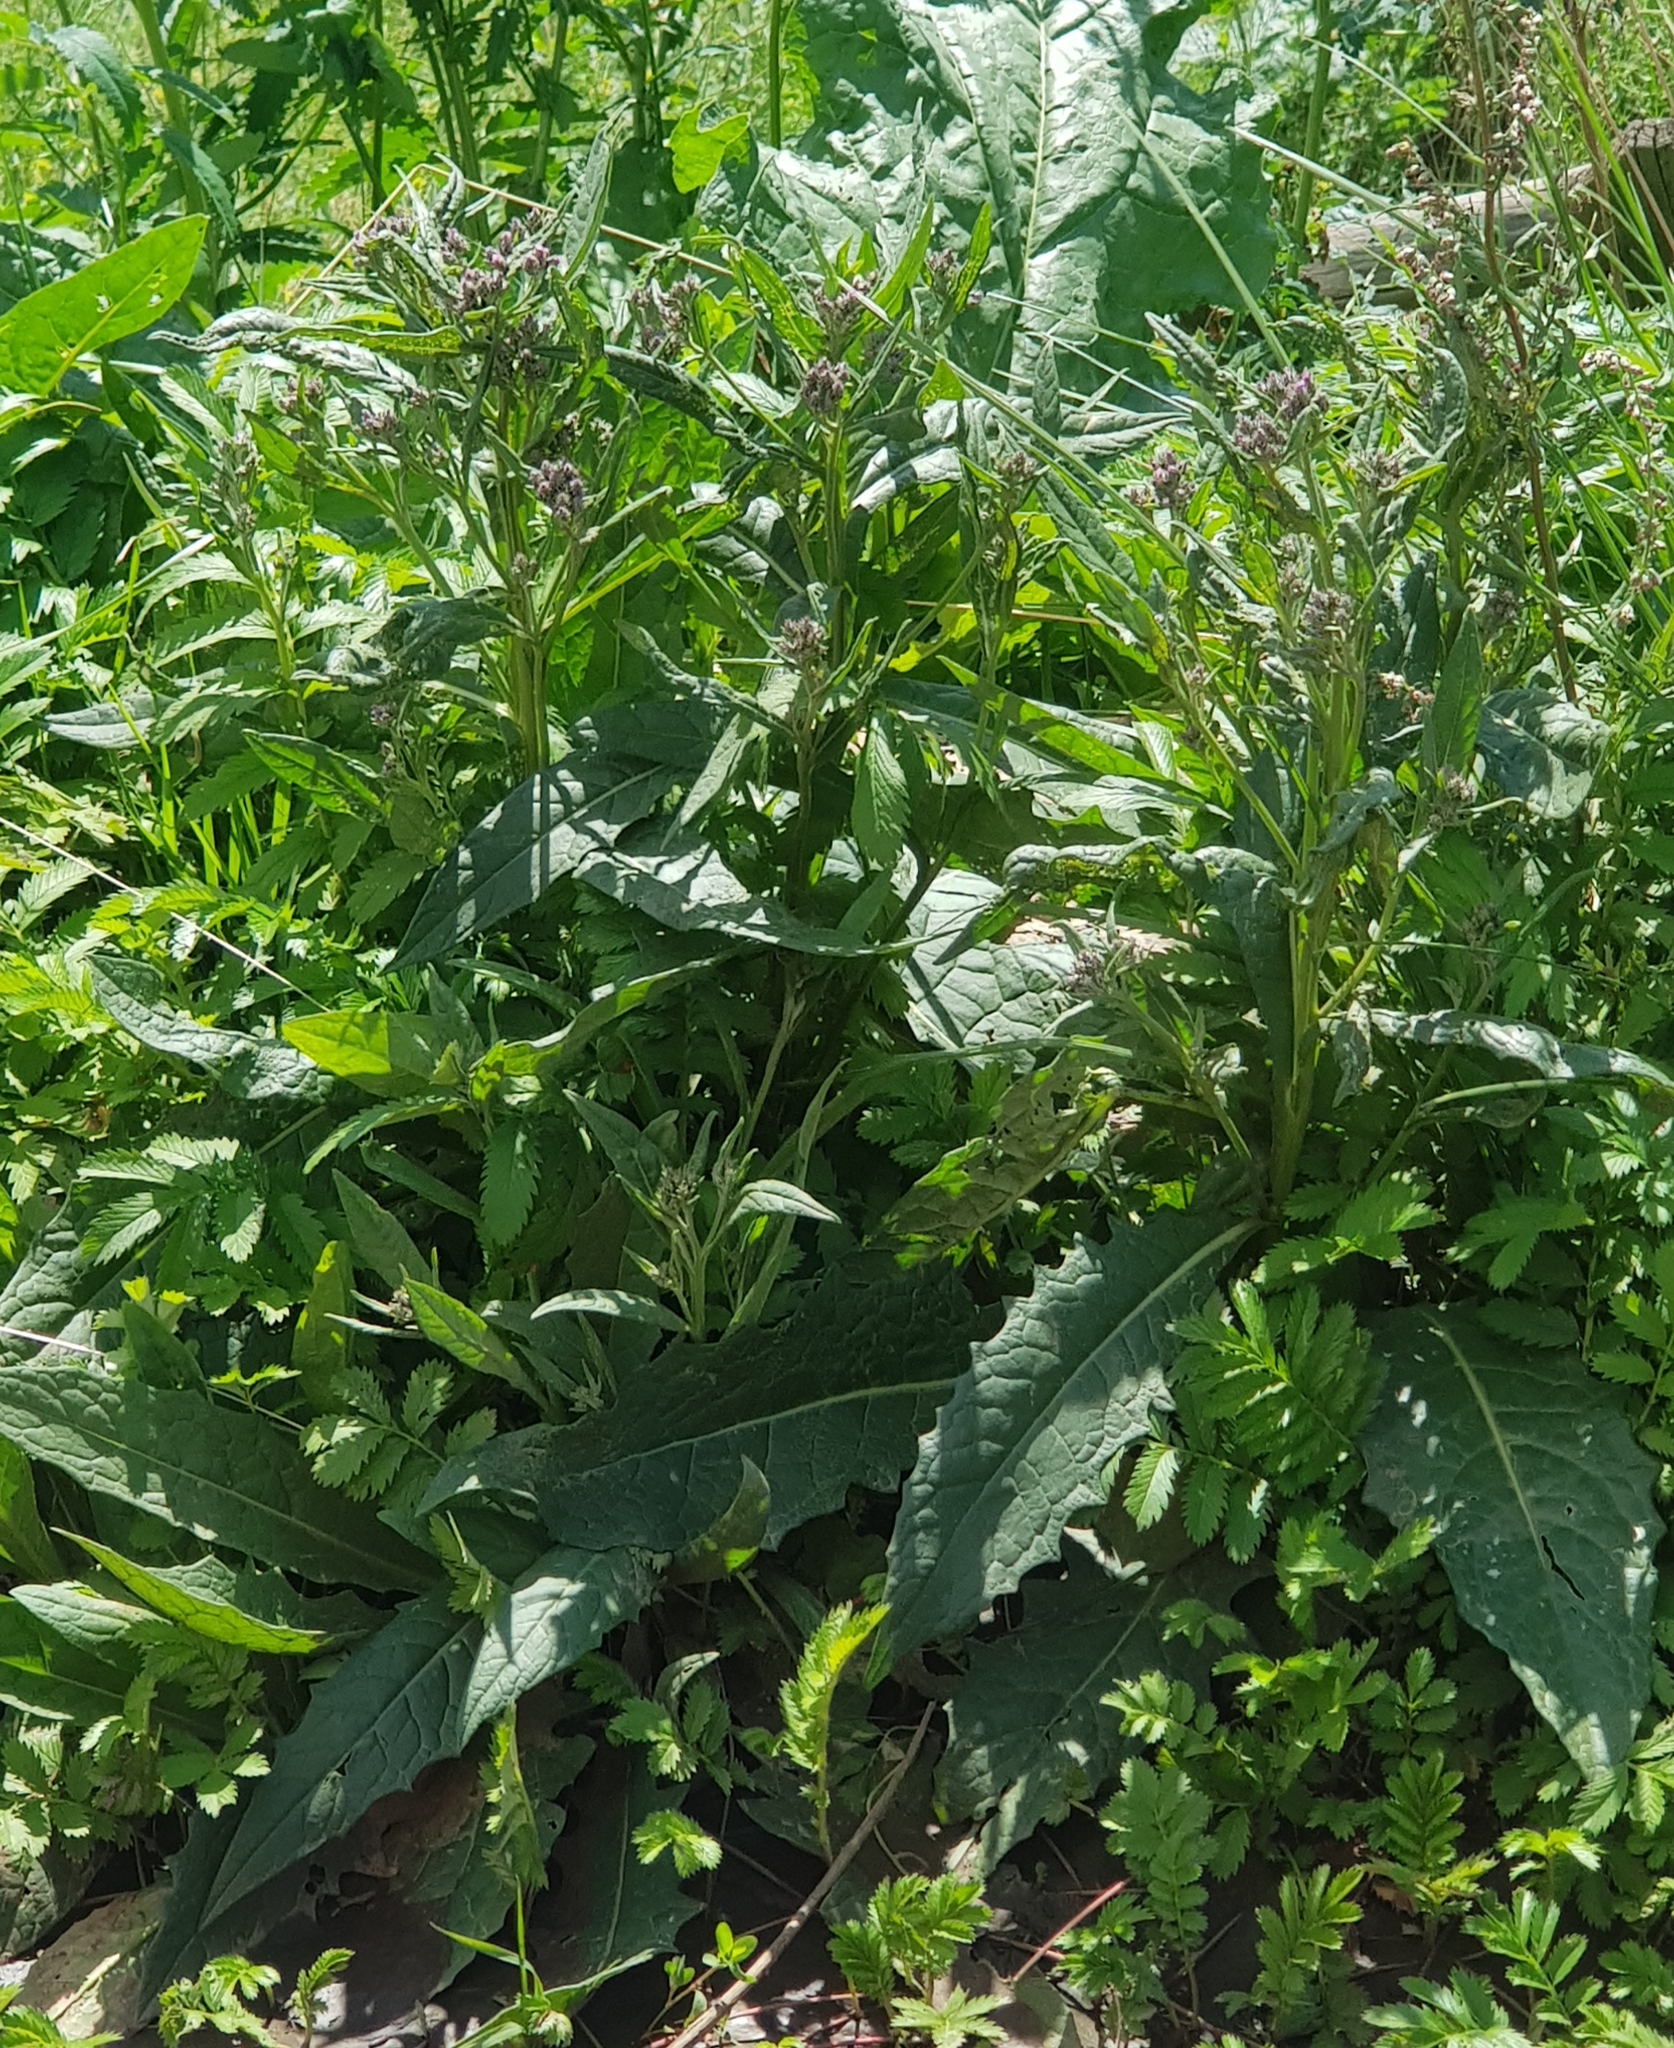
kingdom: Plantae
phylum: Tracheophyta
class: Magnoliopsida
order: Asterales
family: Asteraceae
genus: Saussurea
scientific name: Saussurea amara
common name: Alberta sawwort
